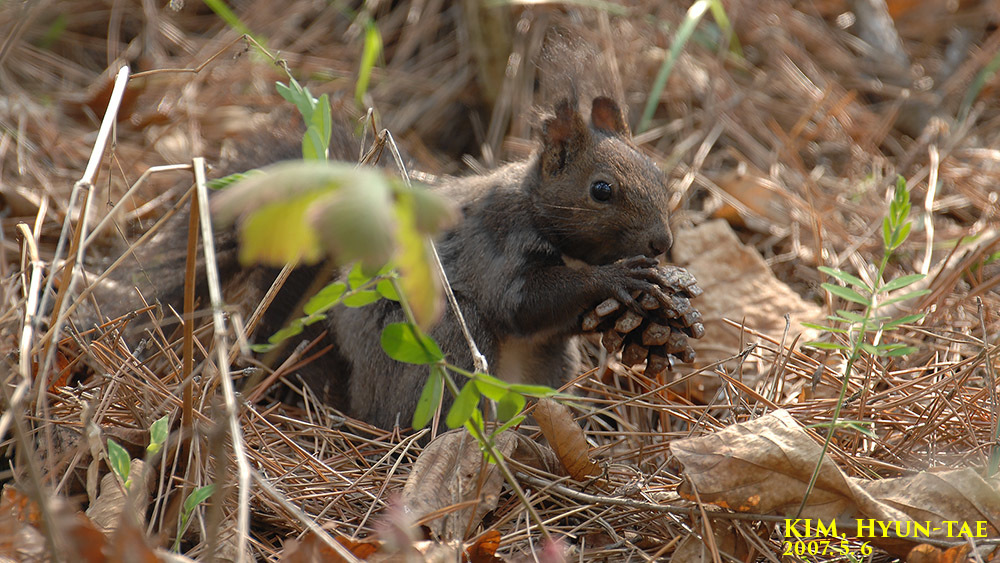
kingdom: Animalia
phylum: Chordata
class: Mammalia
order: Rodentia
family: Sciuridae
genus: Sciurus
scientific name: Sciurus vulgaris
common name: Eurasian red squirrel
